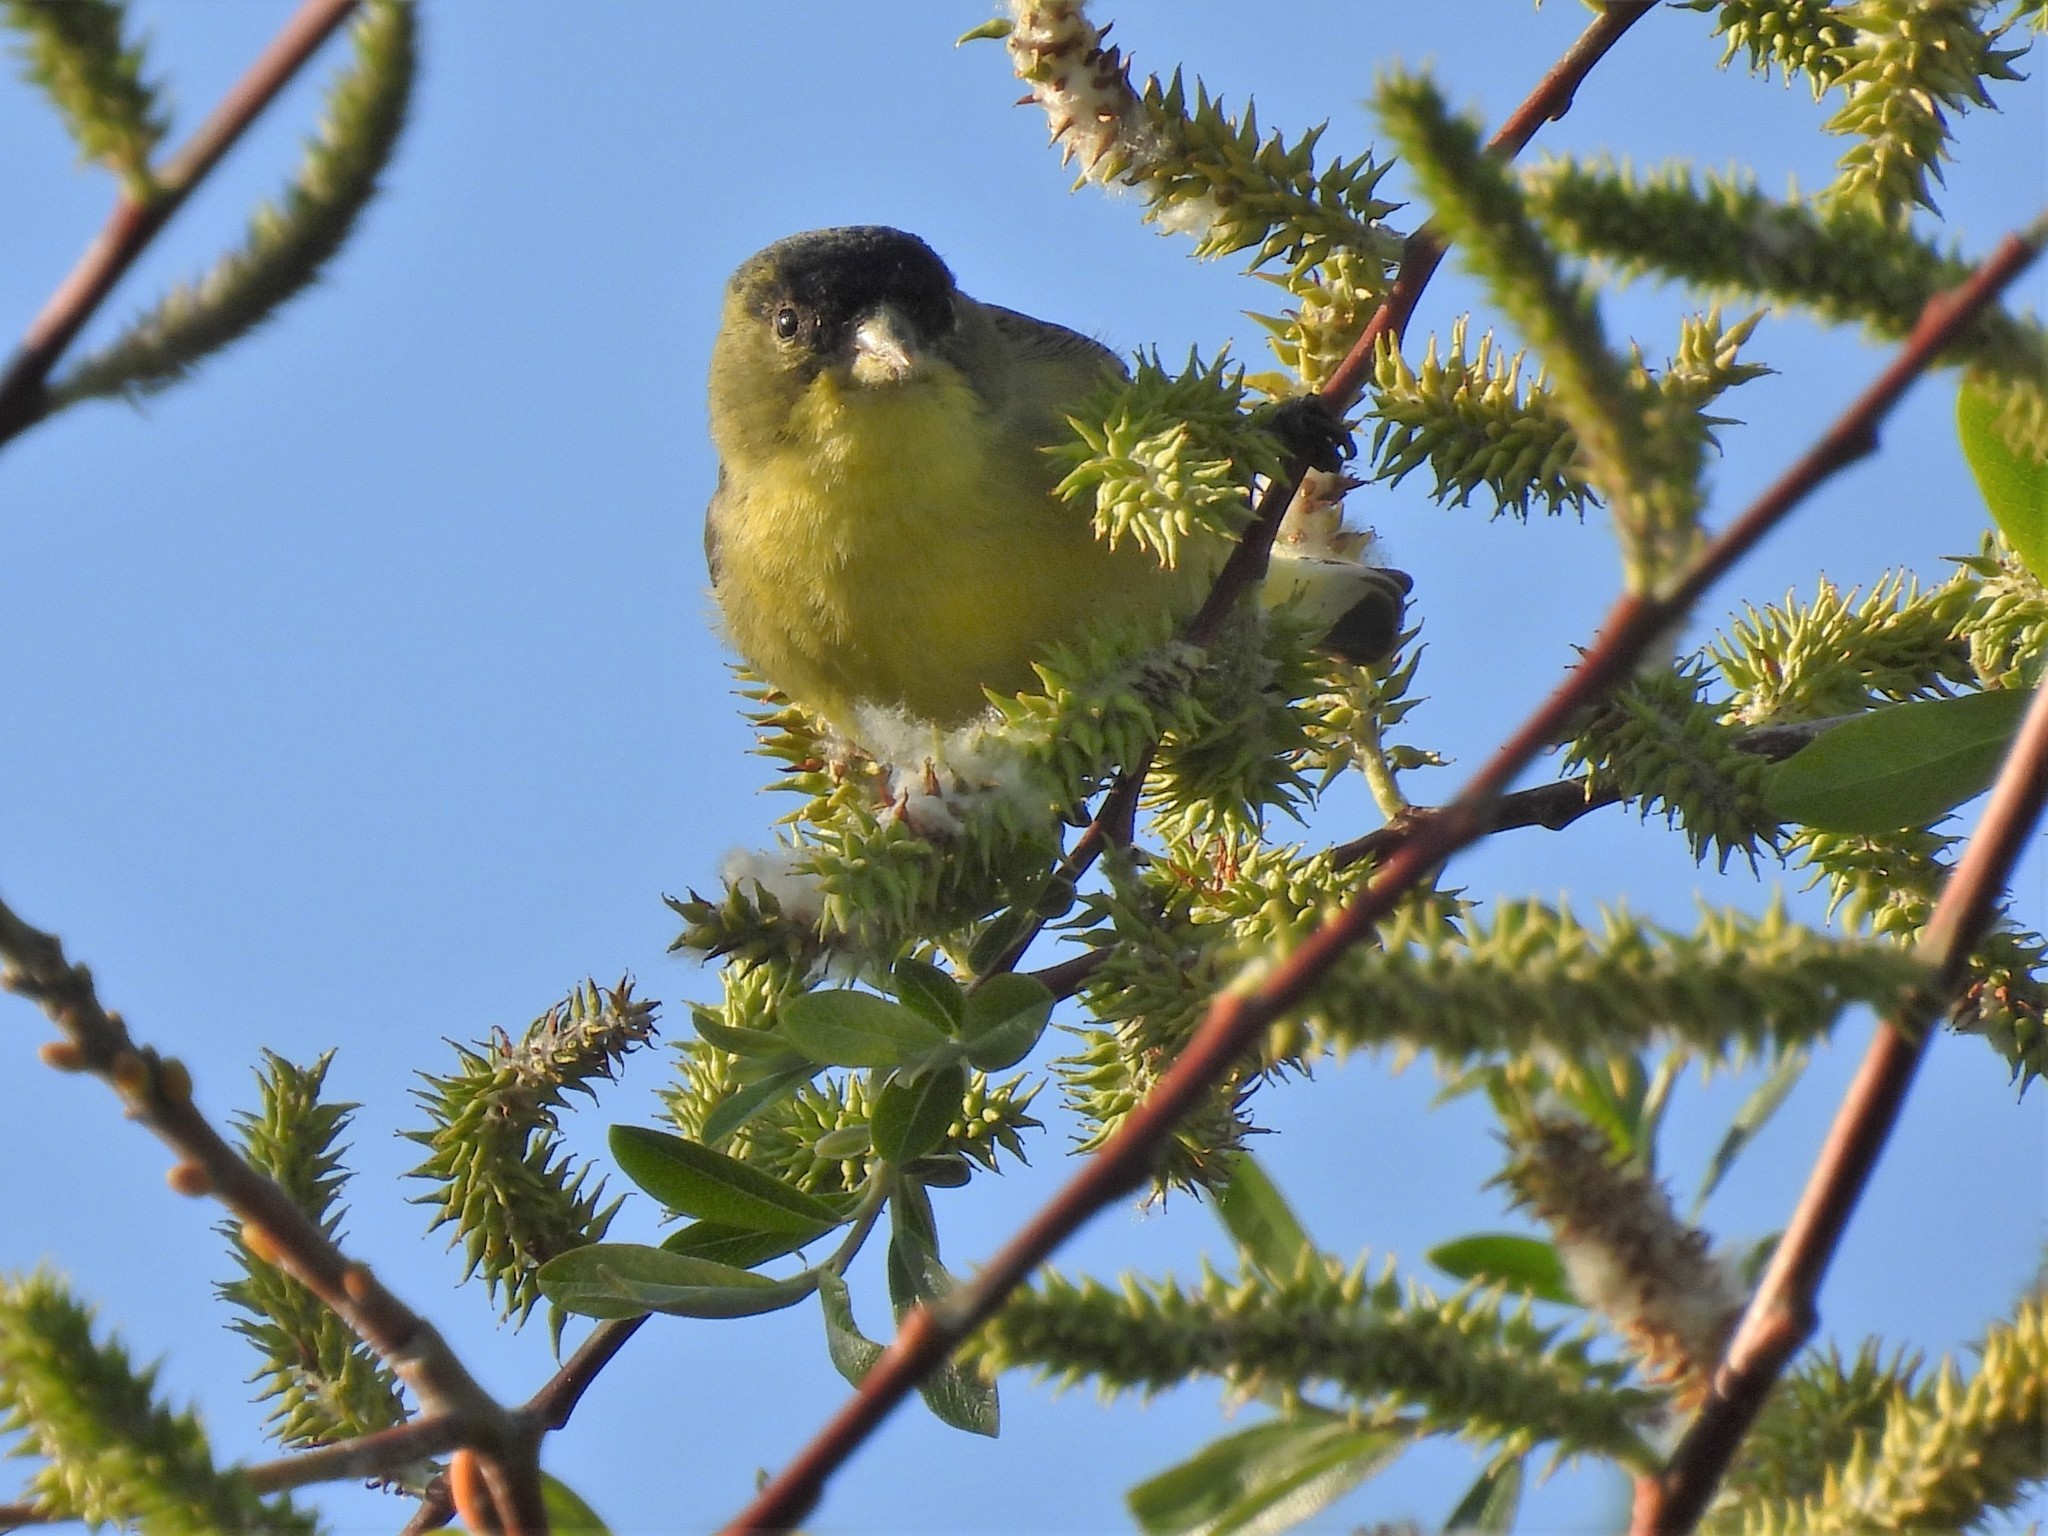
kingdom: Animalia
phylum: Chordata
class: Aves
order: Passeriformes
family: Fringillidae
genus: Spinus
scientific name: Spinus psaltria
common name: Lesser goldfinch
